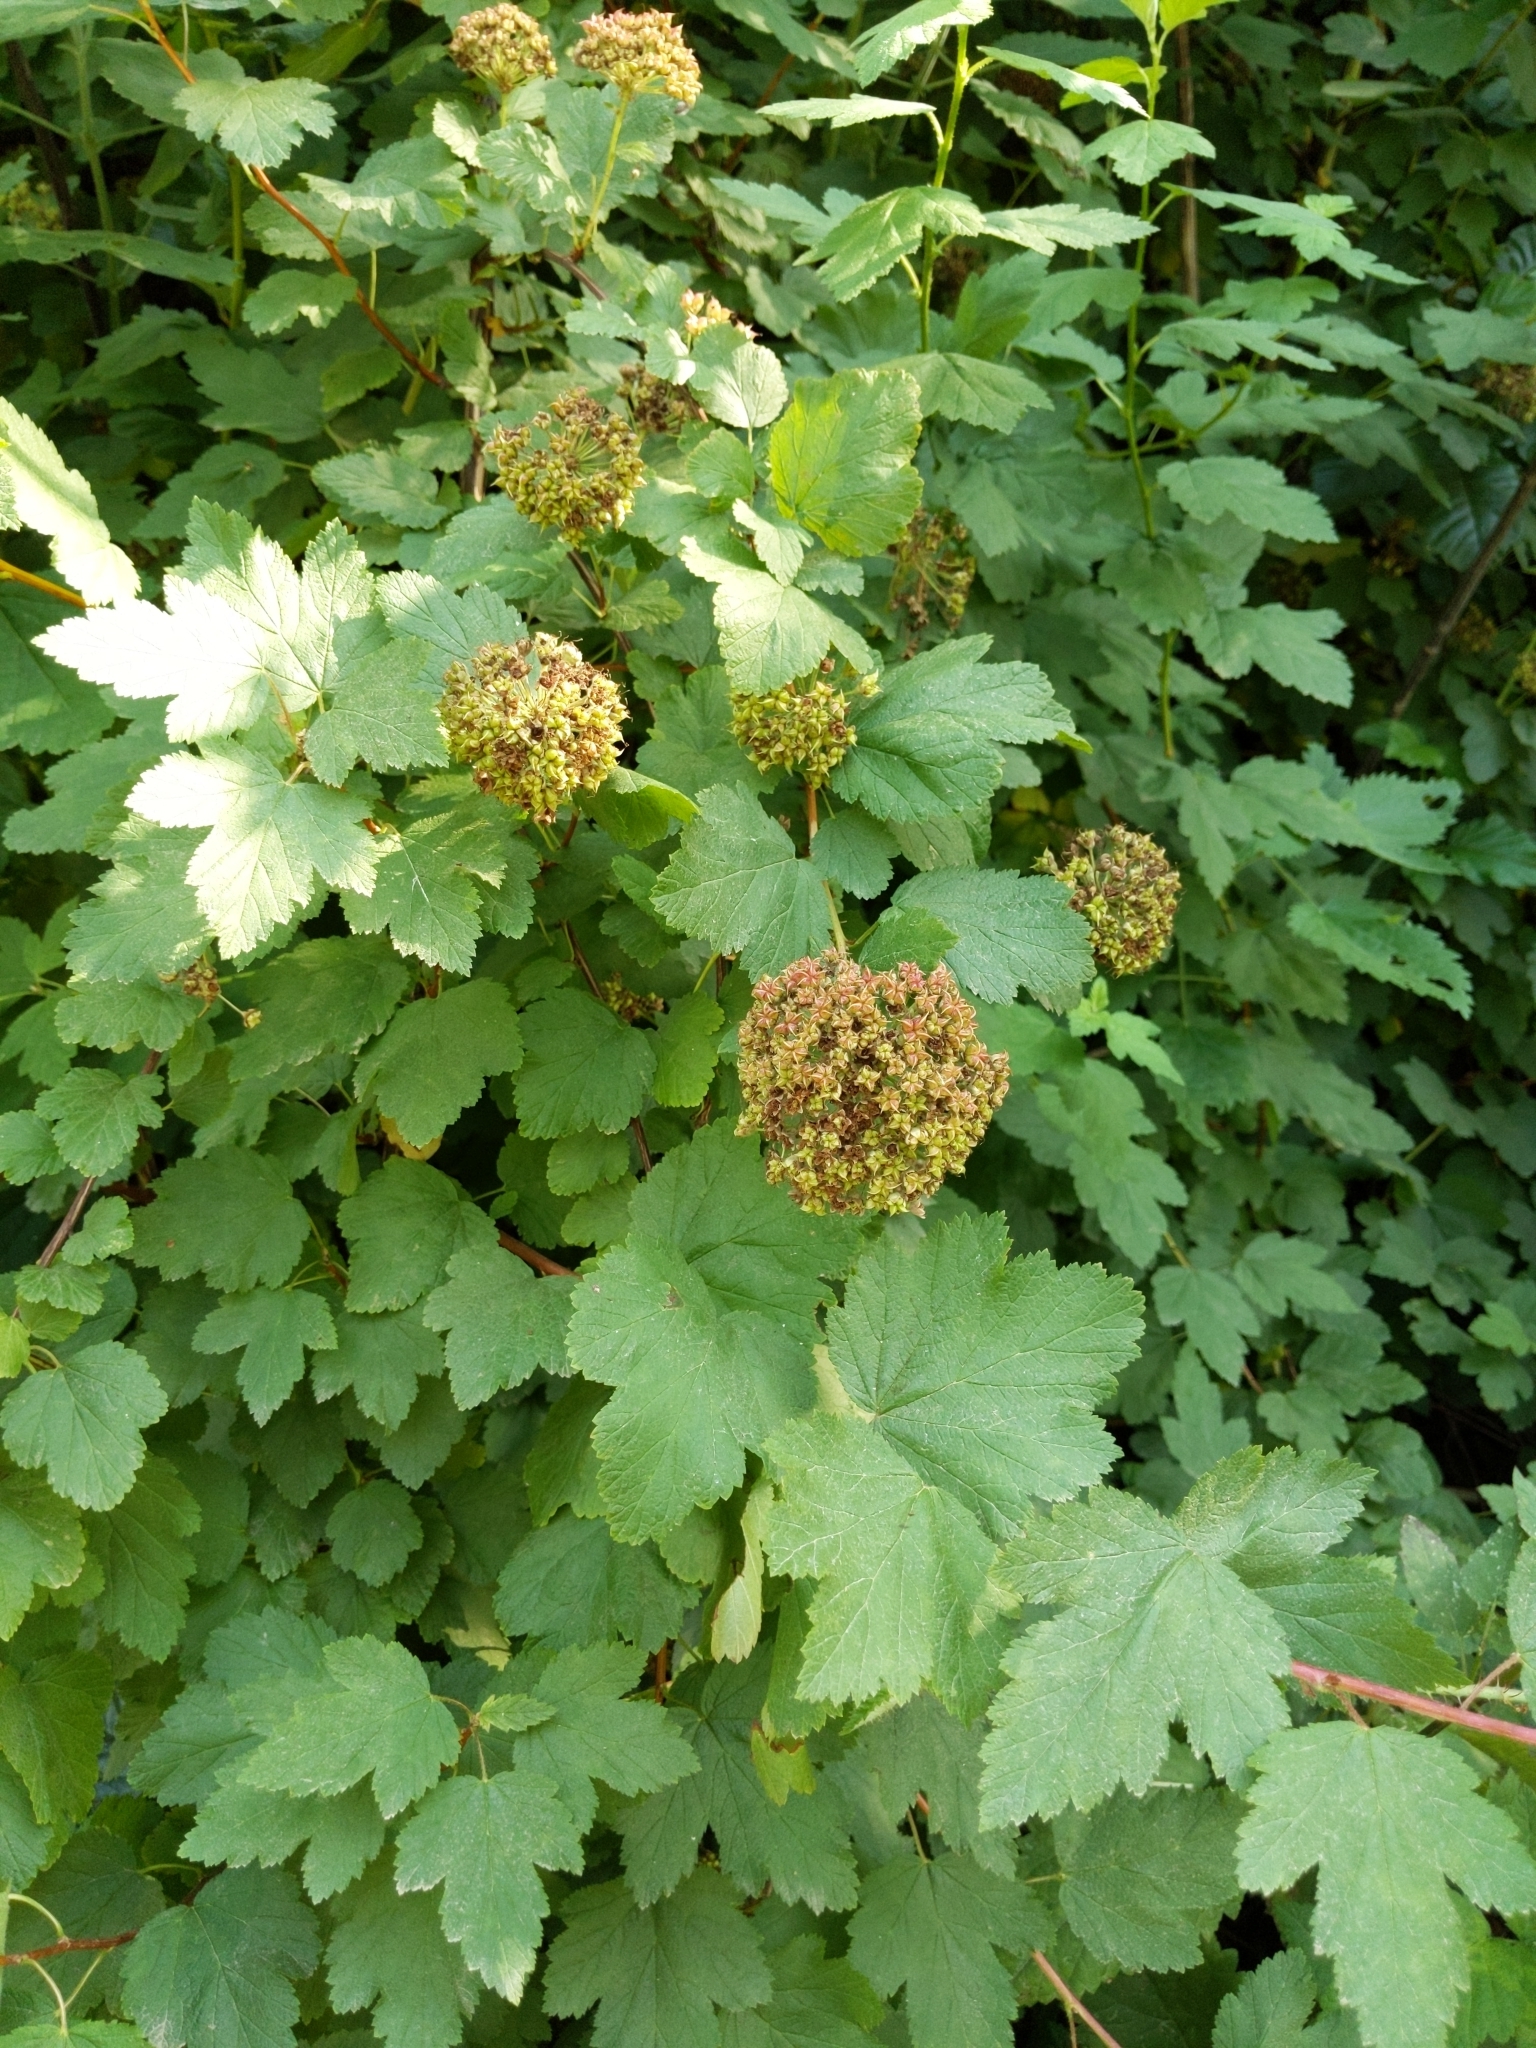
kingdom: Plantae
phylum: Tracheophyta
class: Magnoliopsida
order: Rosales
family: Rosaceae
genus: Physocarpus
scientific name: Physocarpus capitatus
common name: Pacific ninebark
